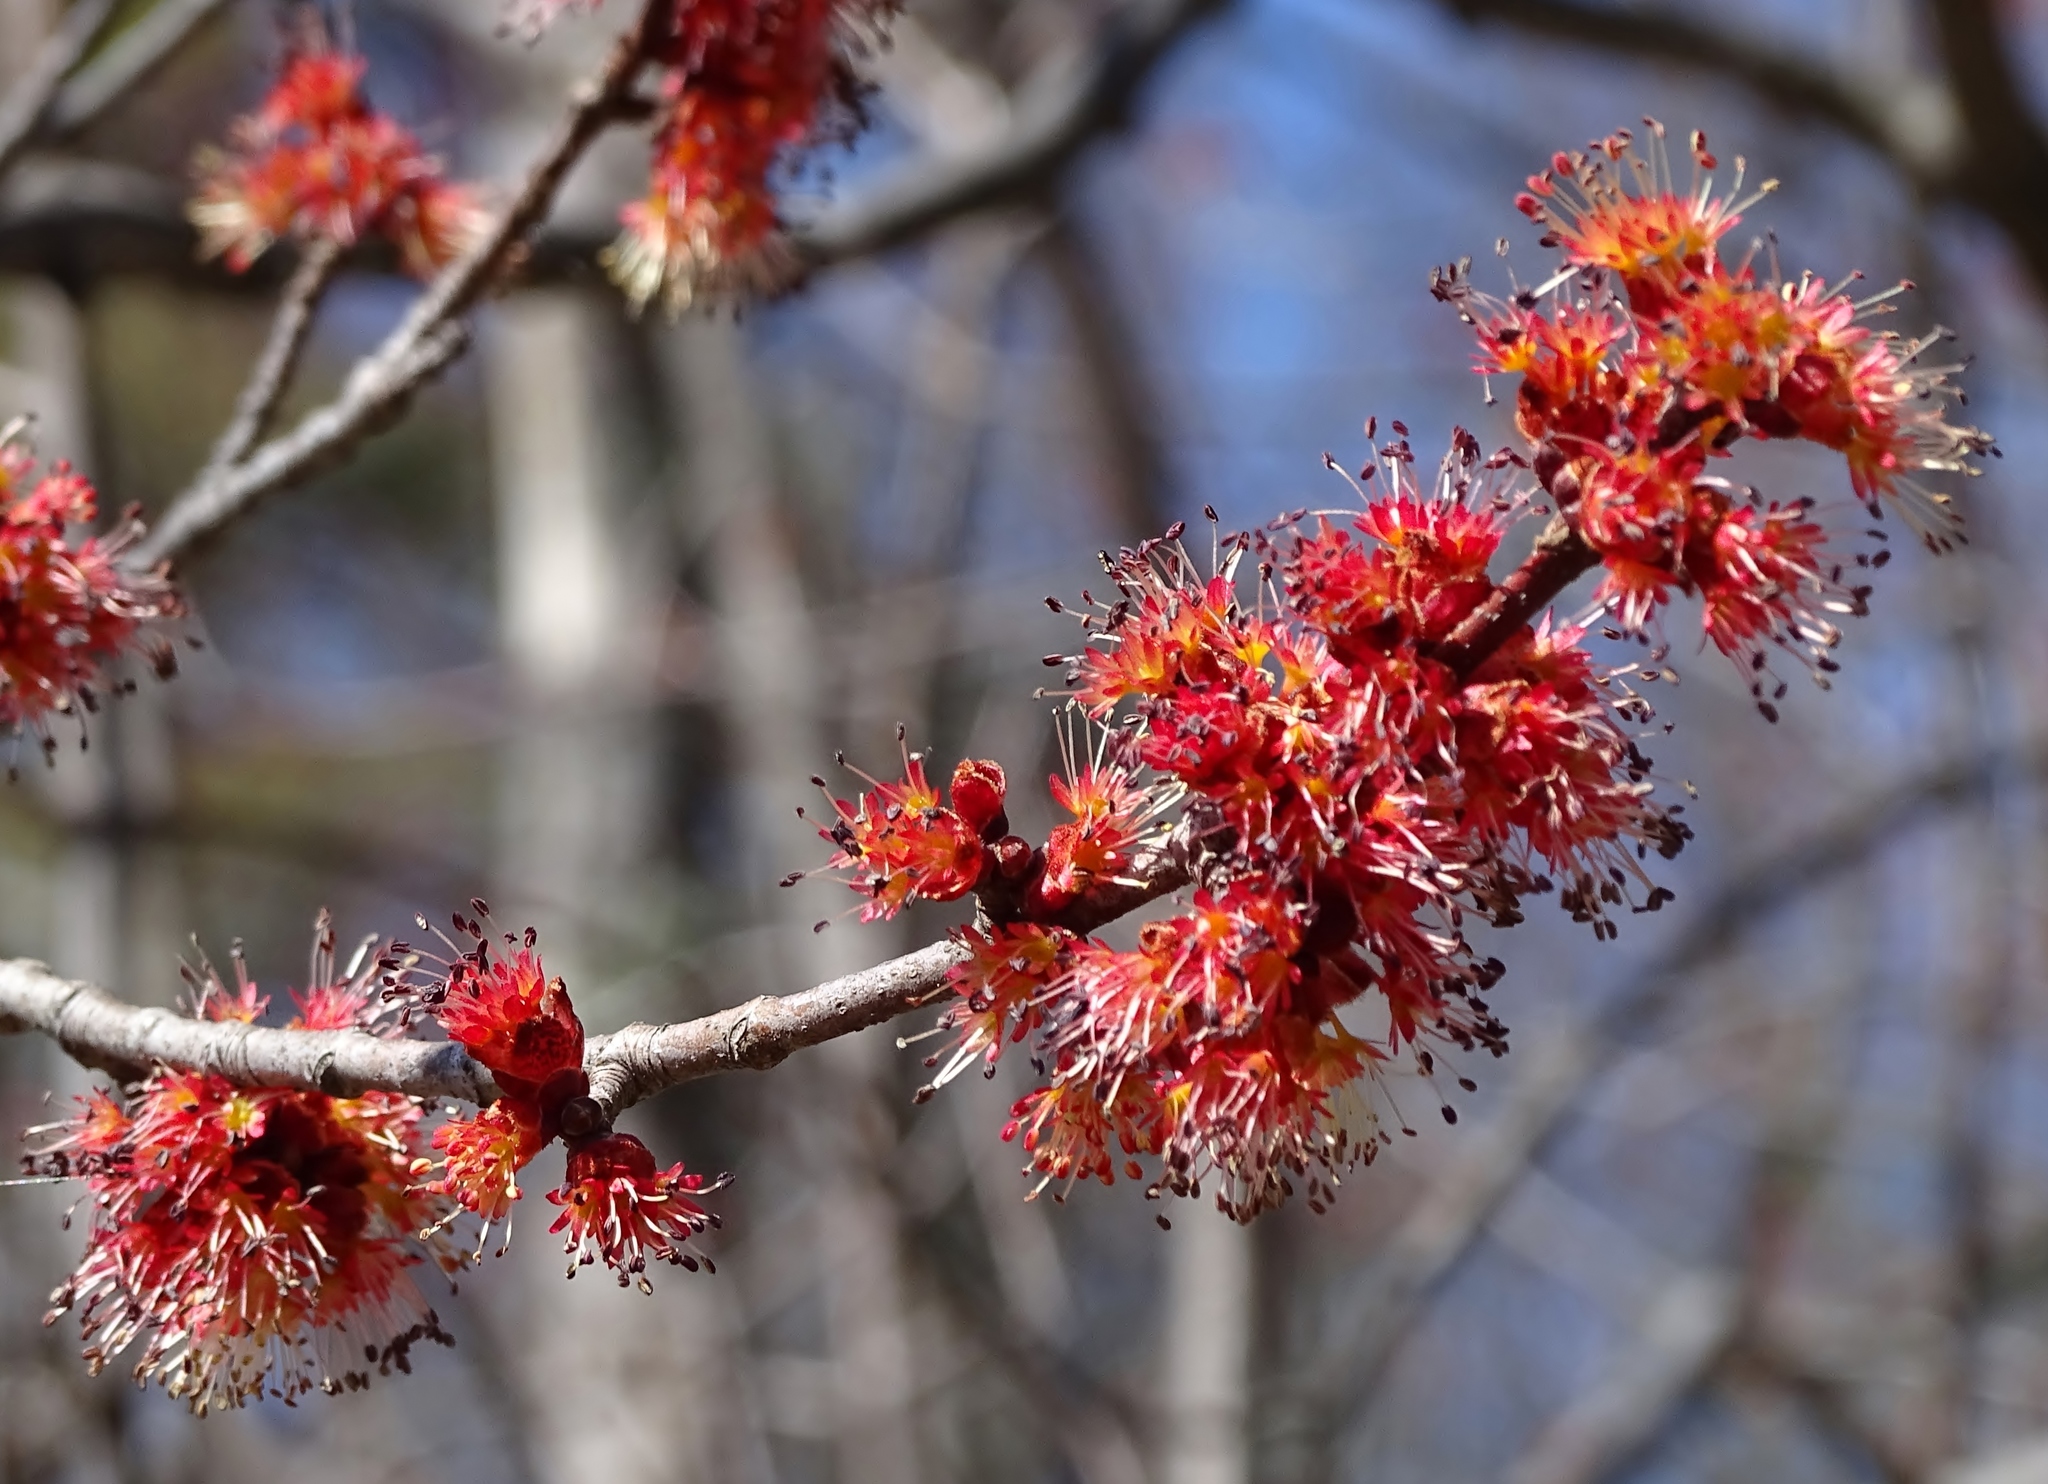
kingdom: Plantae
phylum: Tracheophyta
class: Magnoliopsida
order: Sapindales
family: Sapindaceae
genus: Acer
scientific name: Acer rubrum
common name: Red maple
